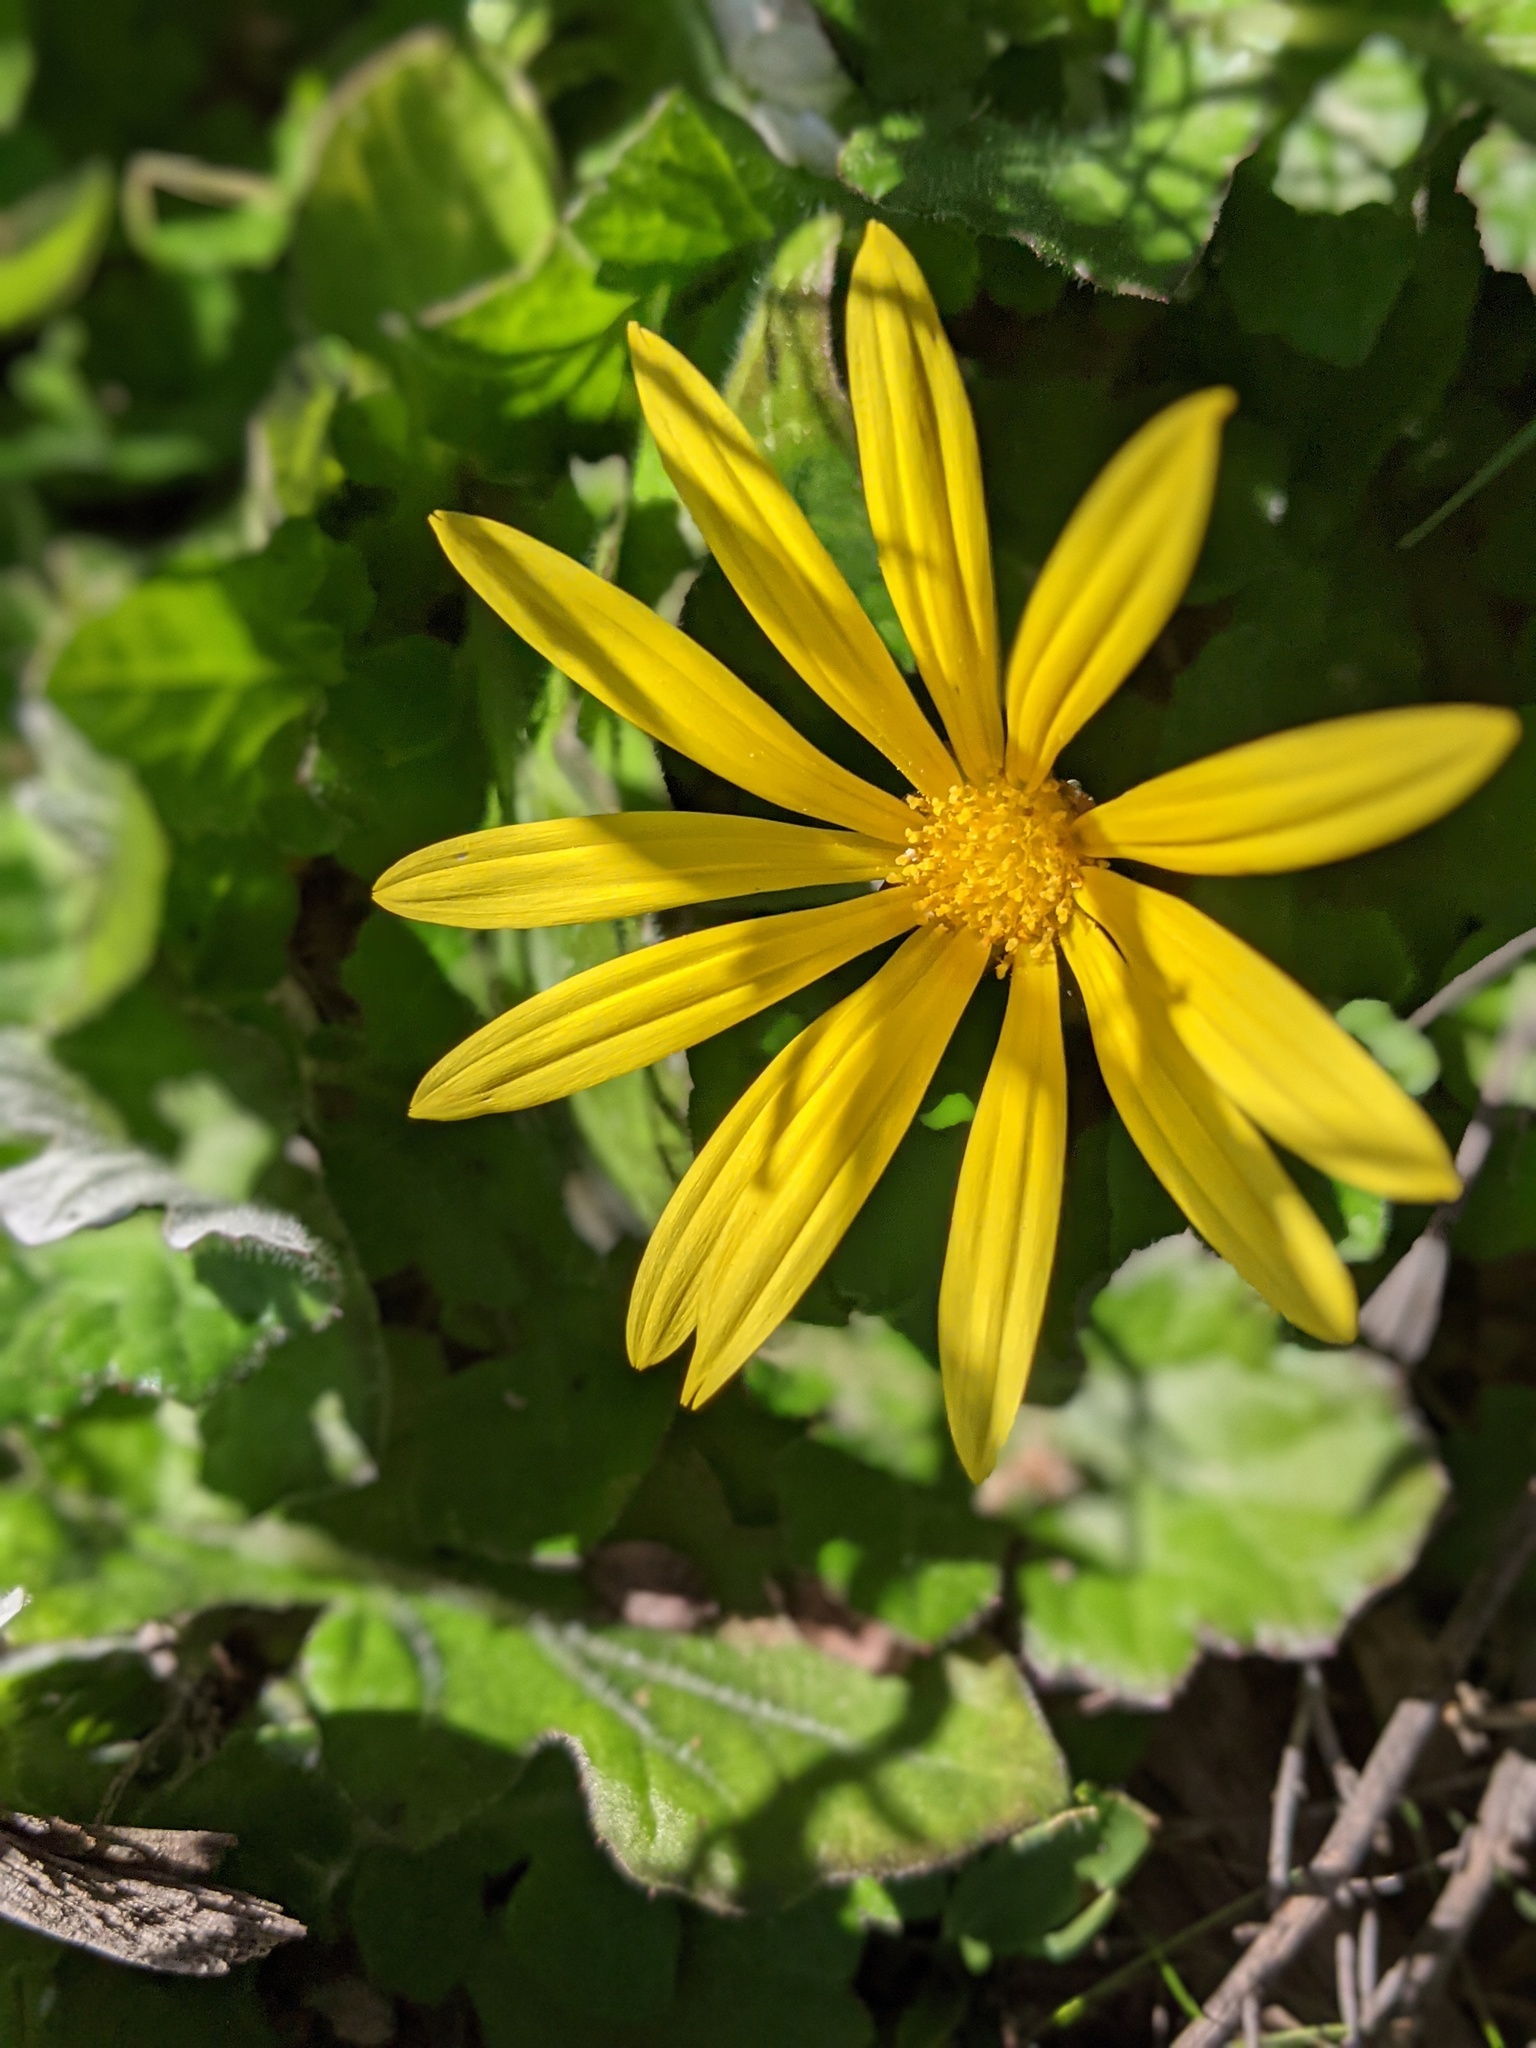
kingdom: Plantae
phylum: Tracheophyta
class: Magnoliopsida
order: Asterales
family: Asteraceae
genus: Arctotheca
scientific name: Arctotheca prostrata
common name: Capeweed
